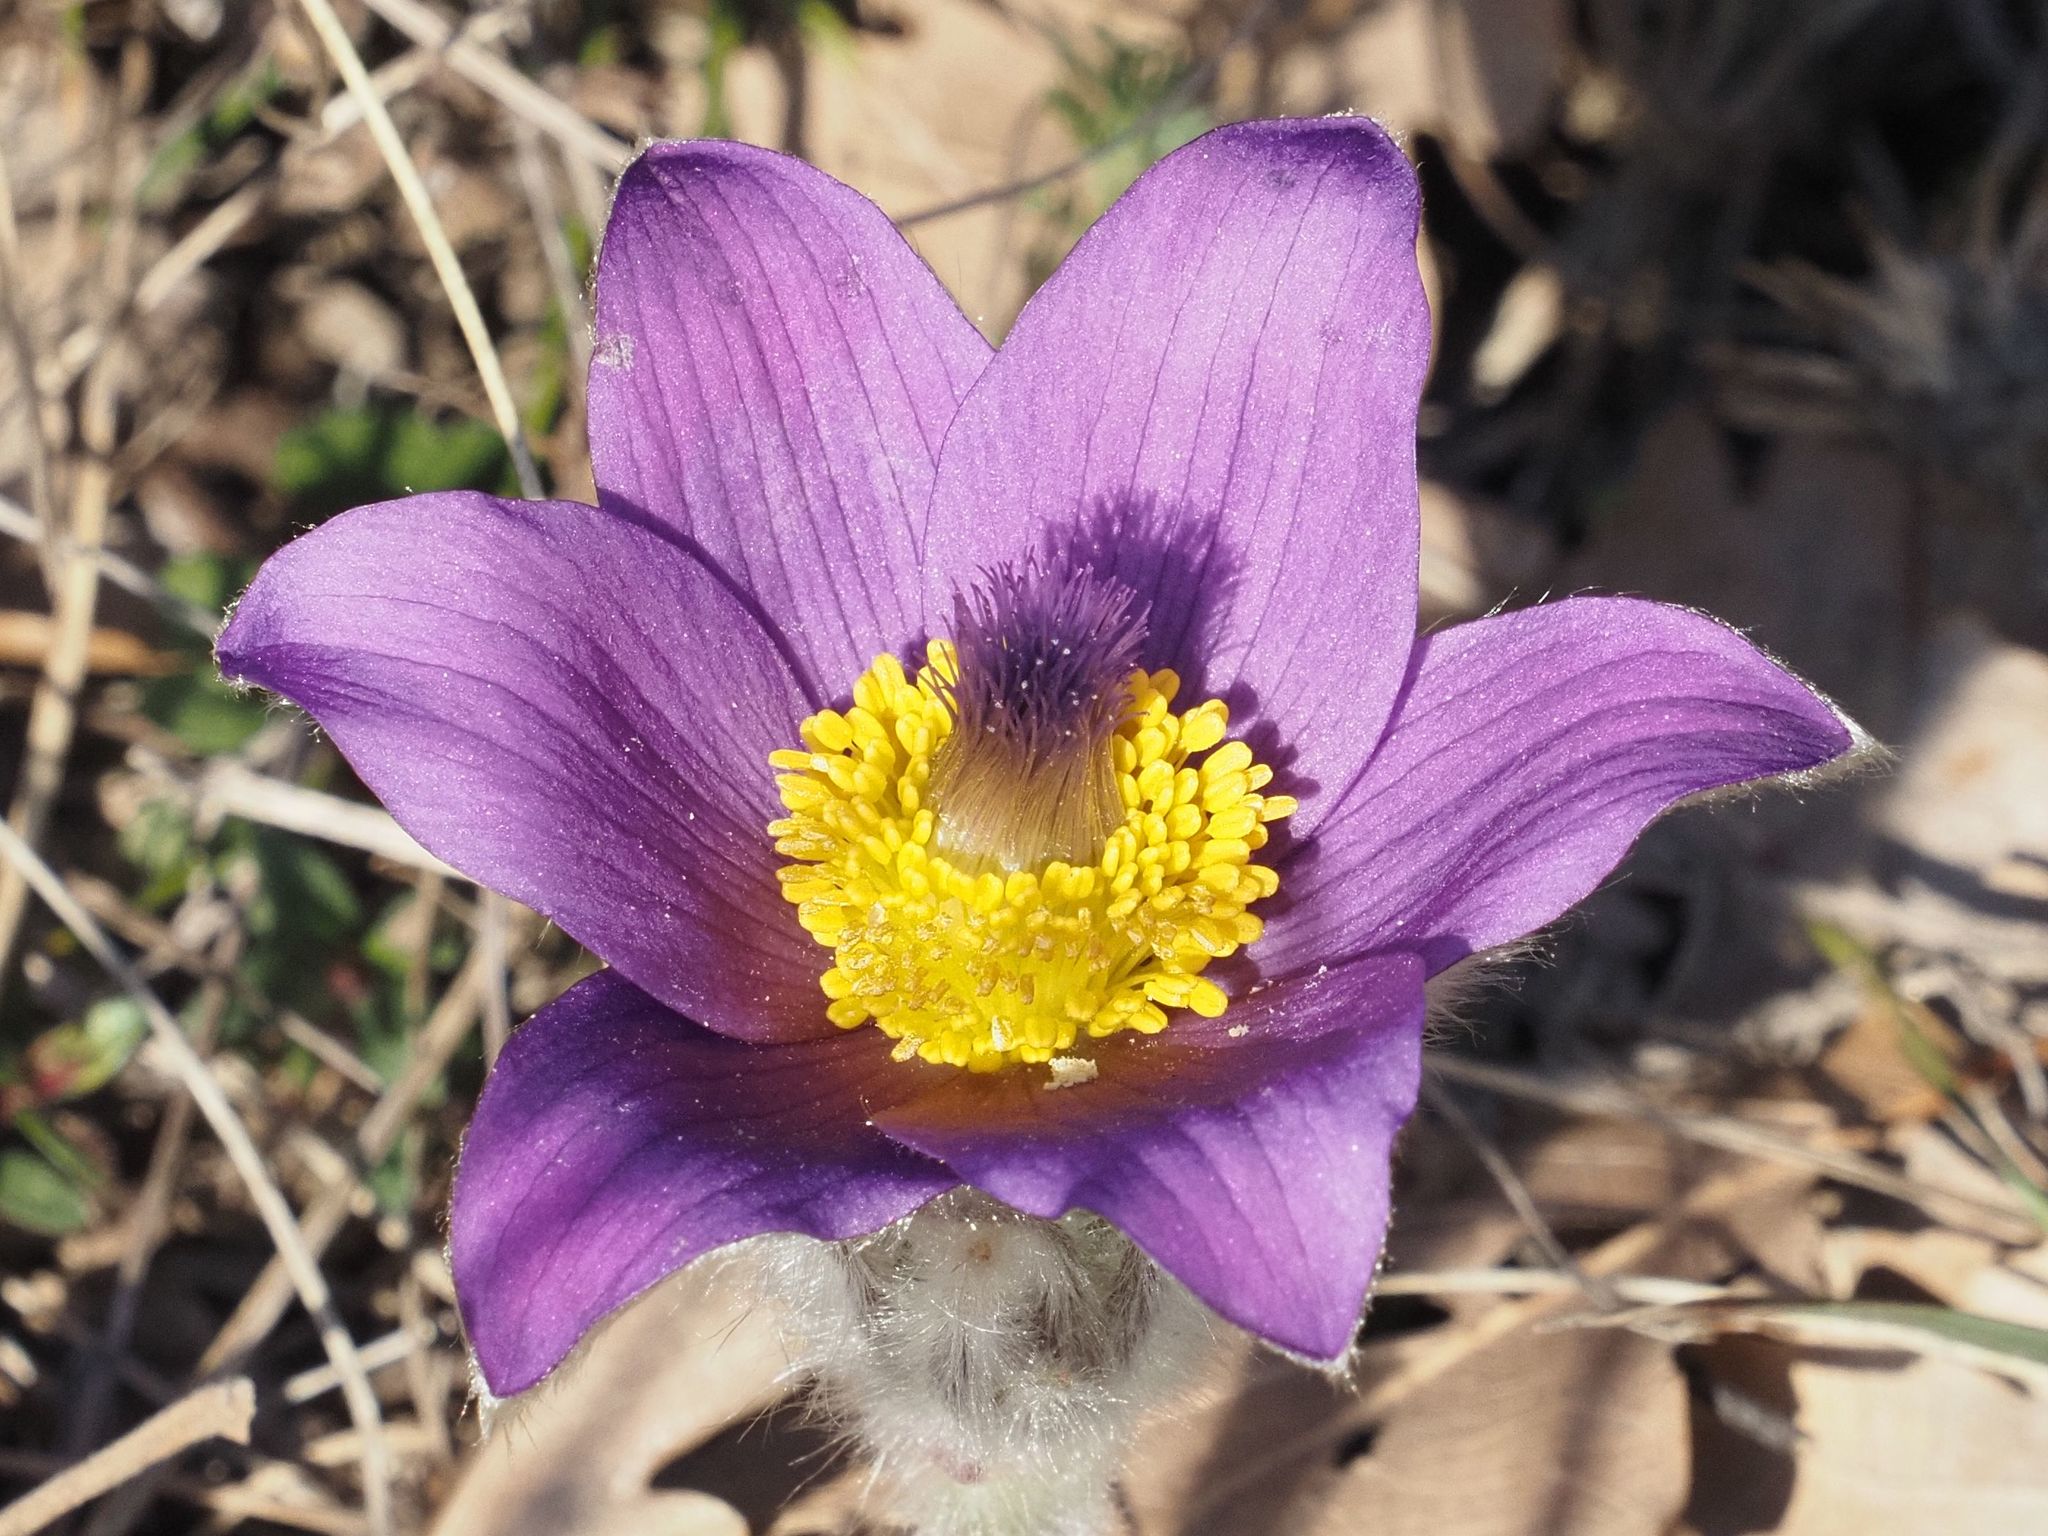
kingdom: Plantae
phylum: Tracheophyta
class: Magnoliopsida
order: Ranunculales
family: Ranunculaceae
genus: Pulsatilla
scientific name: Pulsatilla grandis
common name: Greater pasque flower
